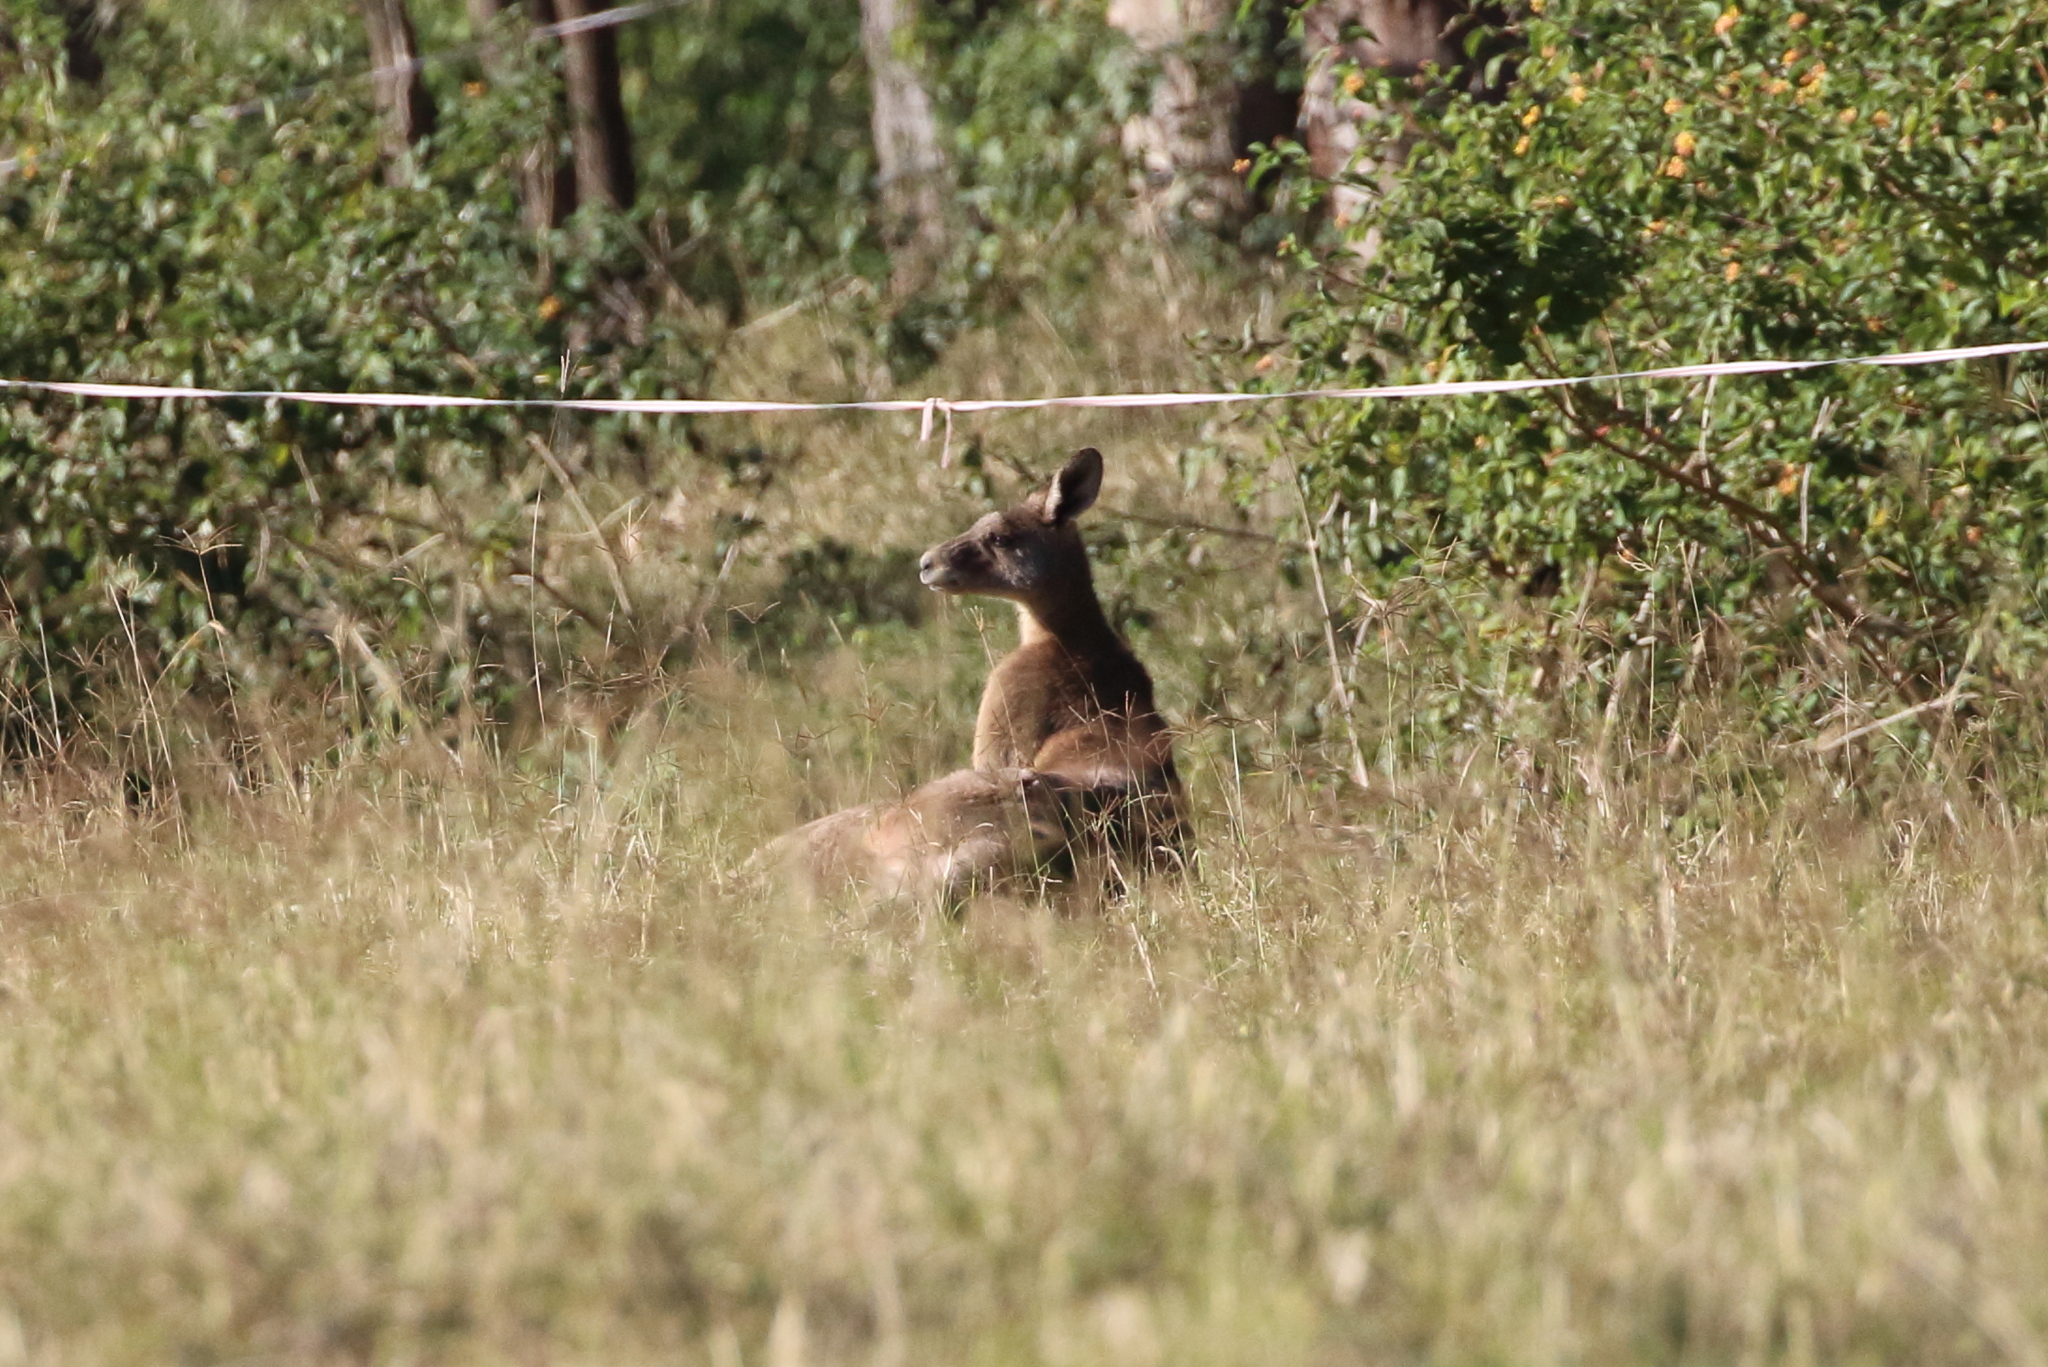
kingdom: Animalia
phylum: Chordata
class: Mammalia
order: Diprotodontia
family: Macropodidae
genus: Macropus
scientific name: Macropus giganteus
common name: Eastern grey kangaroo
